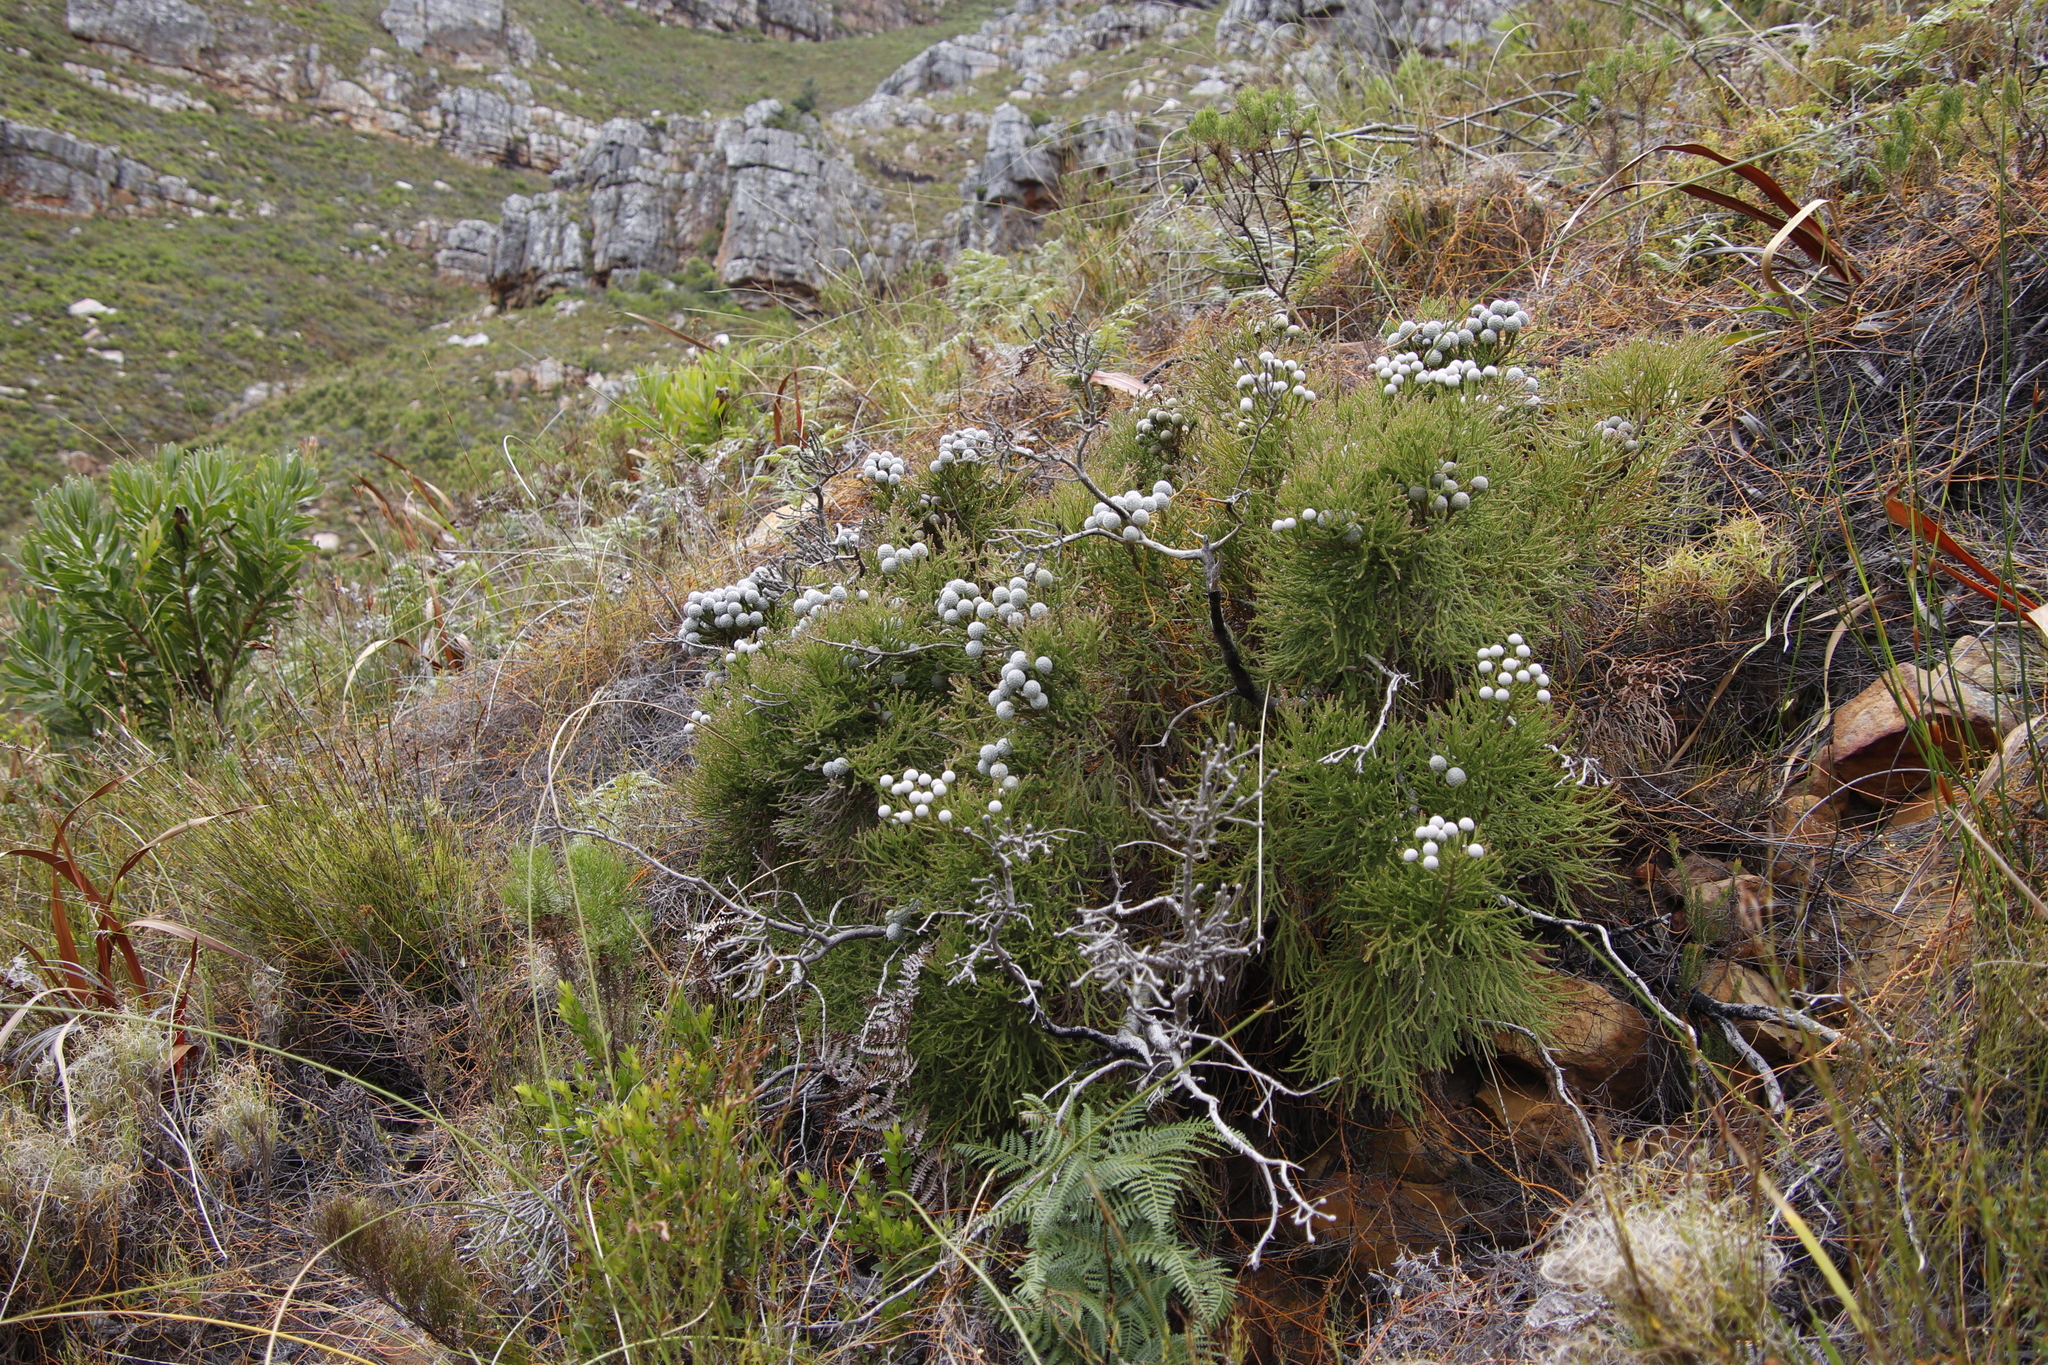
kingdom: Plantae
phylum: Tracheophyta
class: Magnoliopsida
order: Bruniales
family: Bruniaceae
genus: Brunia
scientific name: Brunia noduliflora
